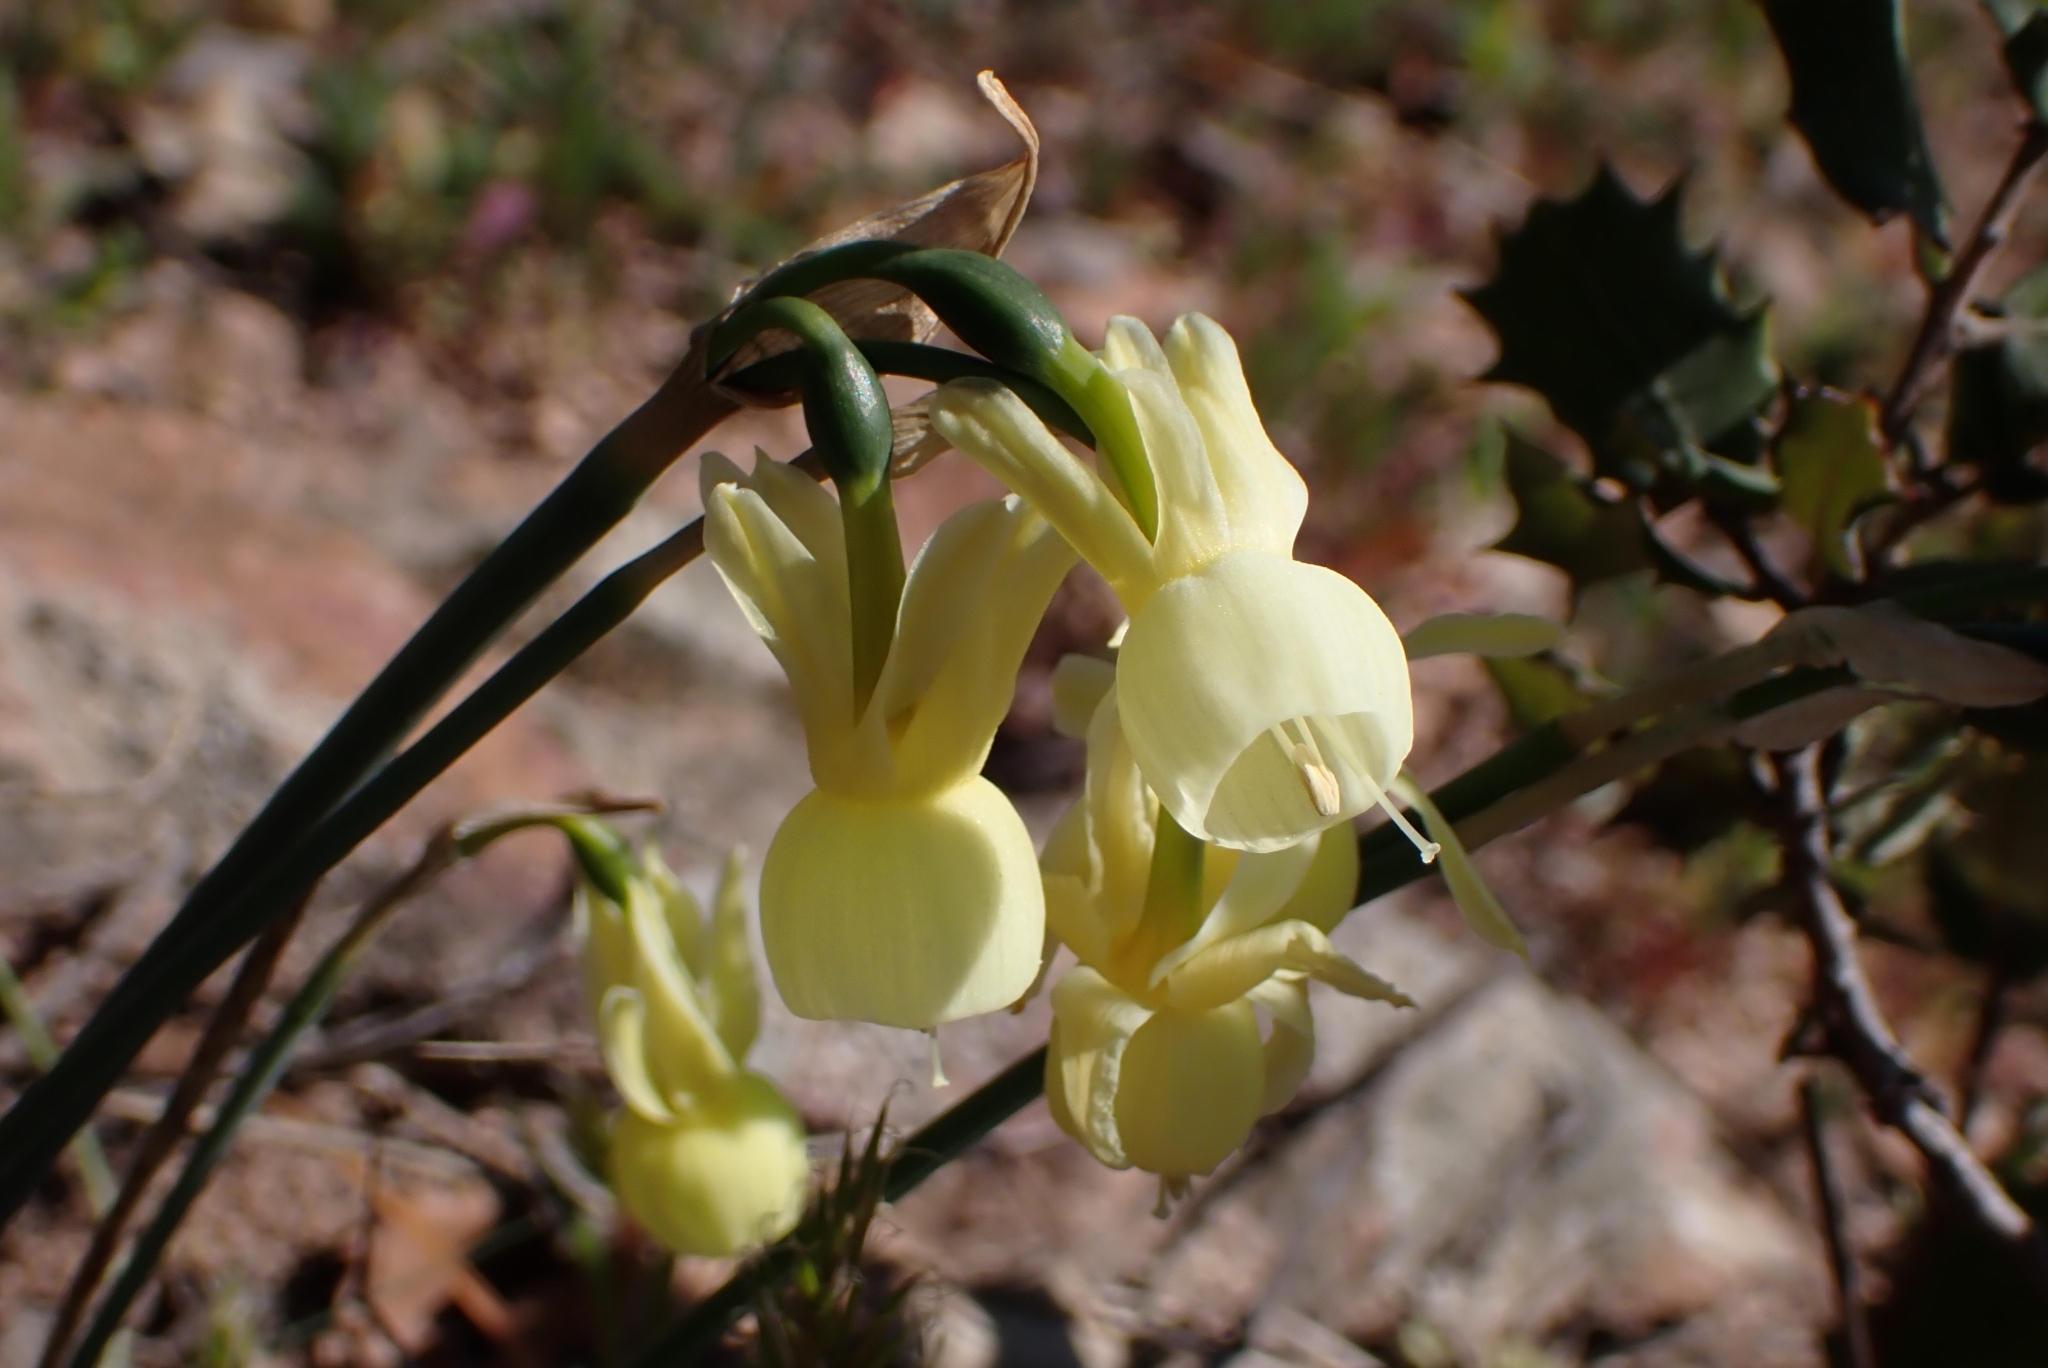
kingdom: Plantae
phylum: Tracheophyta
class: Liliopsida
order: Asparagales
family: Amaryllidaceae
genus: Narcissus
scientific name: Narcissus triandrus
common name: Angel's-tears
